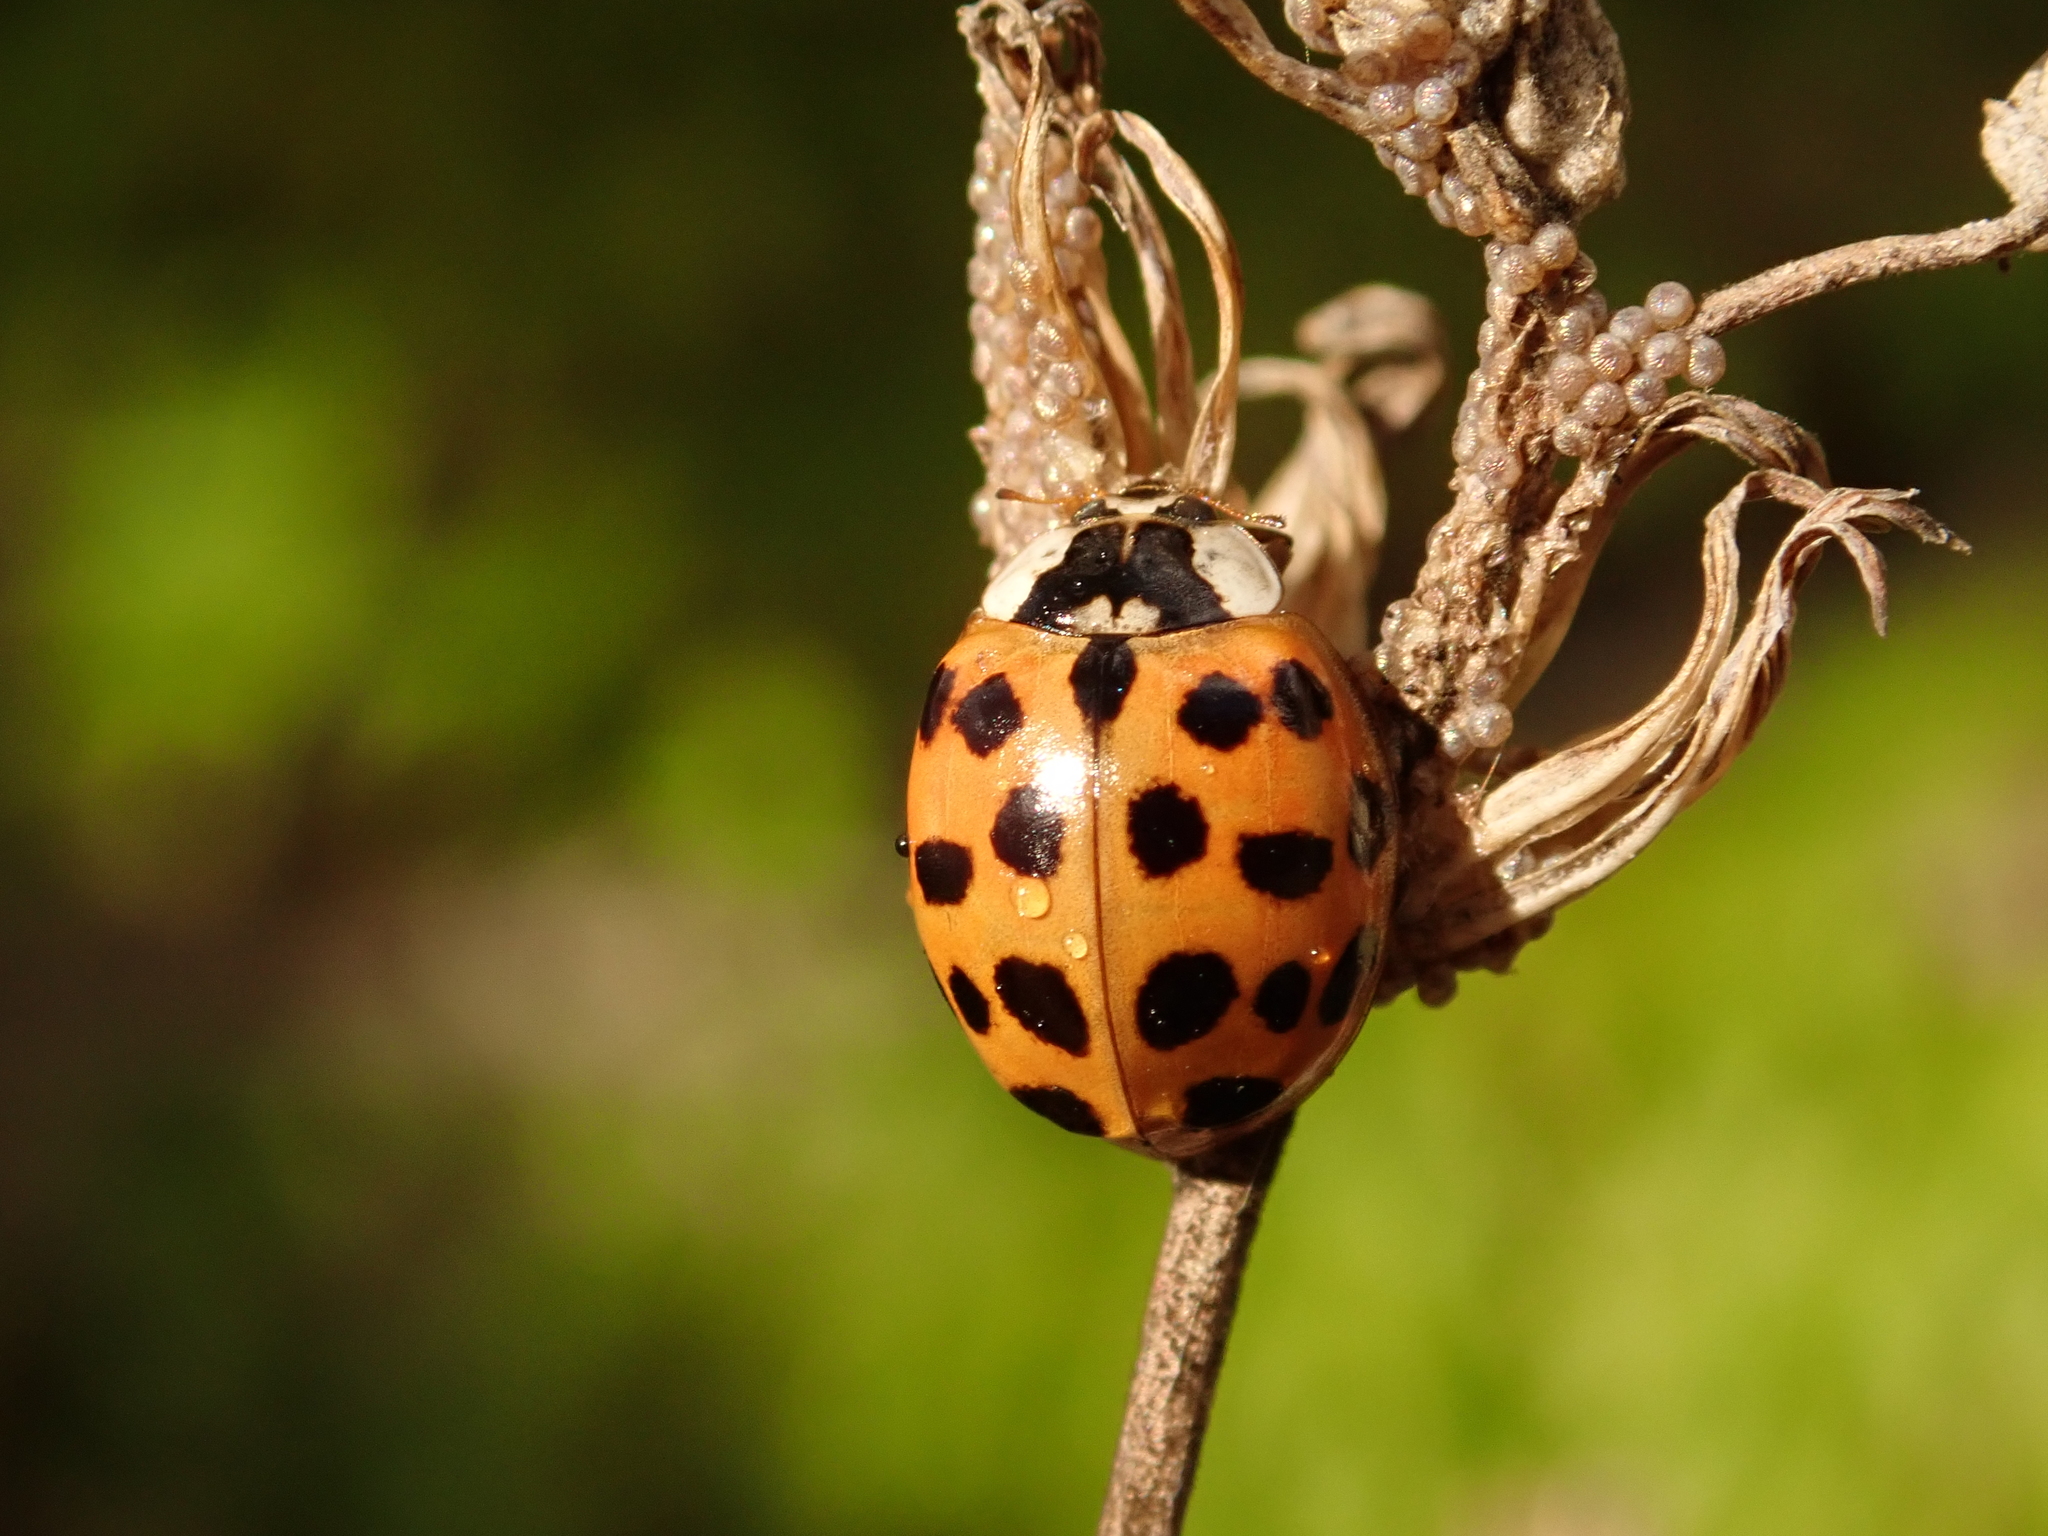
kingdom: Animalia
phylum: Arthropoda
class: Insecta
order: Coleoptera
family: Coccinellidae
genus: Harmonia
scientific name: Harmonia axyridis
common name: Harlequin ladybird
